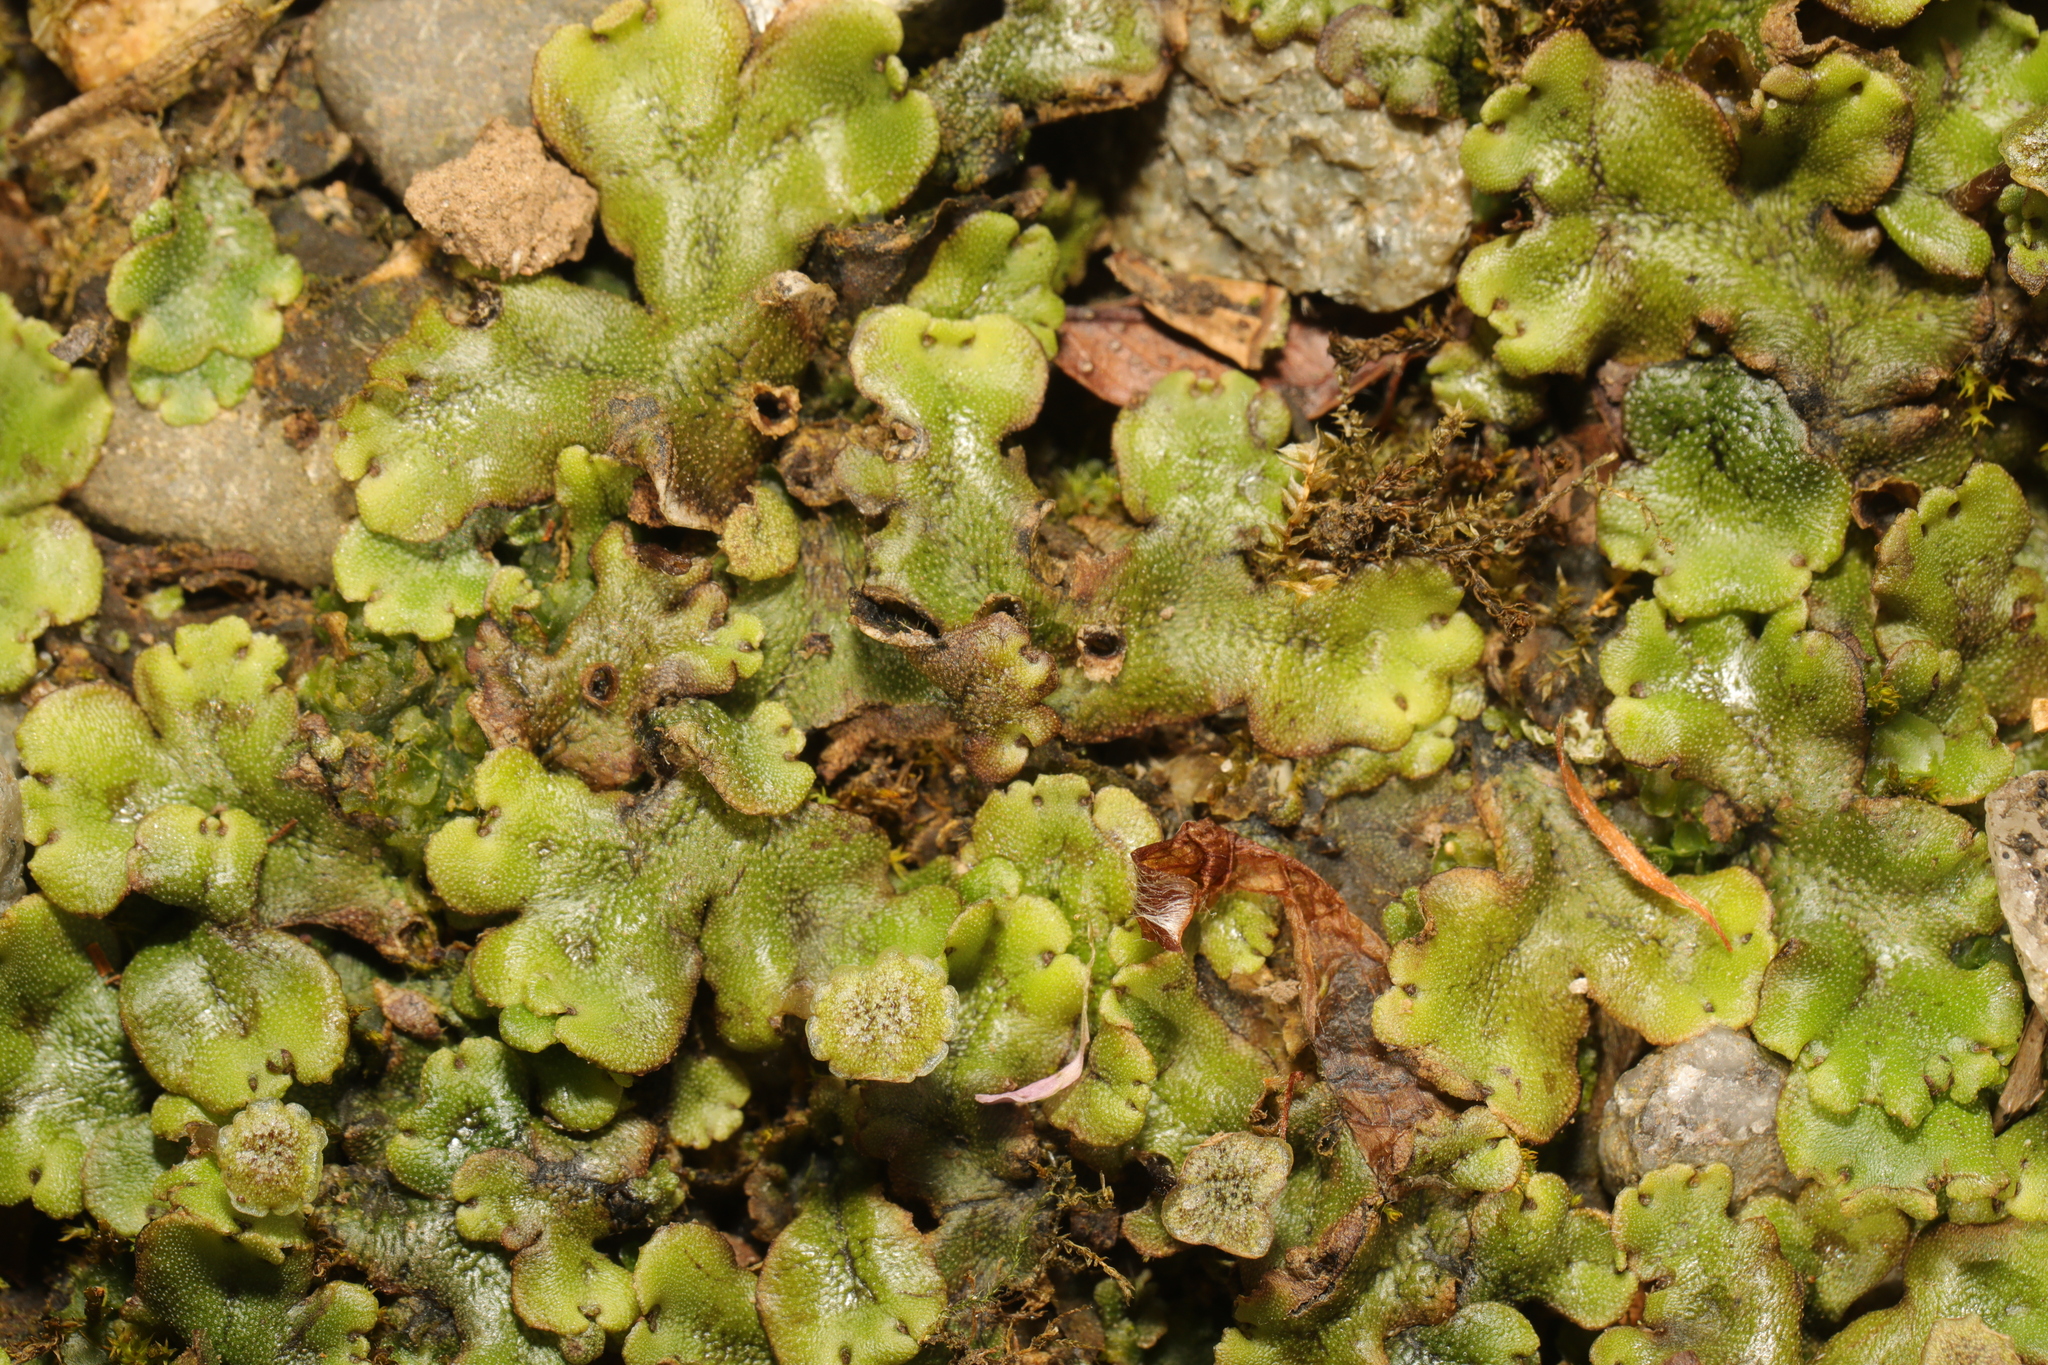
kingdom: Plantae
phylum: Marchantiophyta
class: Marchantiopsida
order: Marchantiales
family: Marchantiaceae
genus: Marchantia
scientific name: Marchantia polymorpha
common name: Common liverwort
